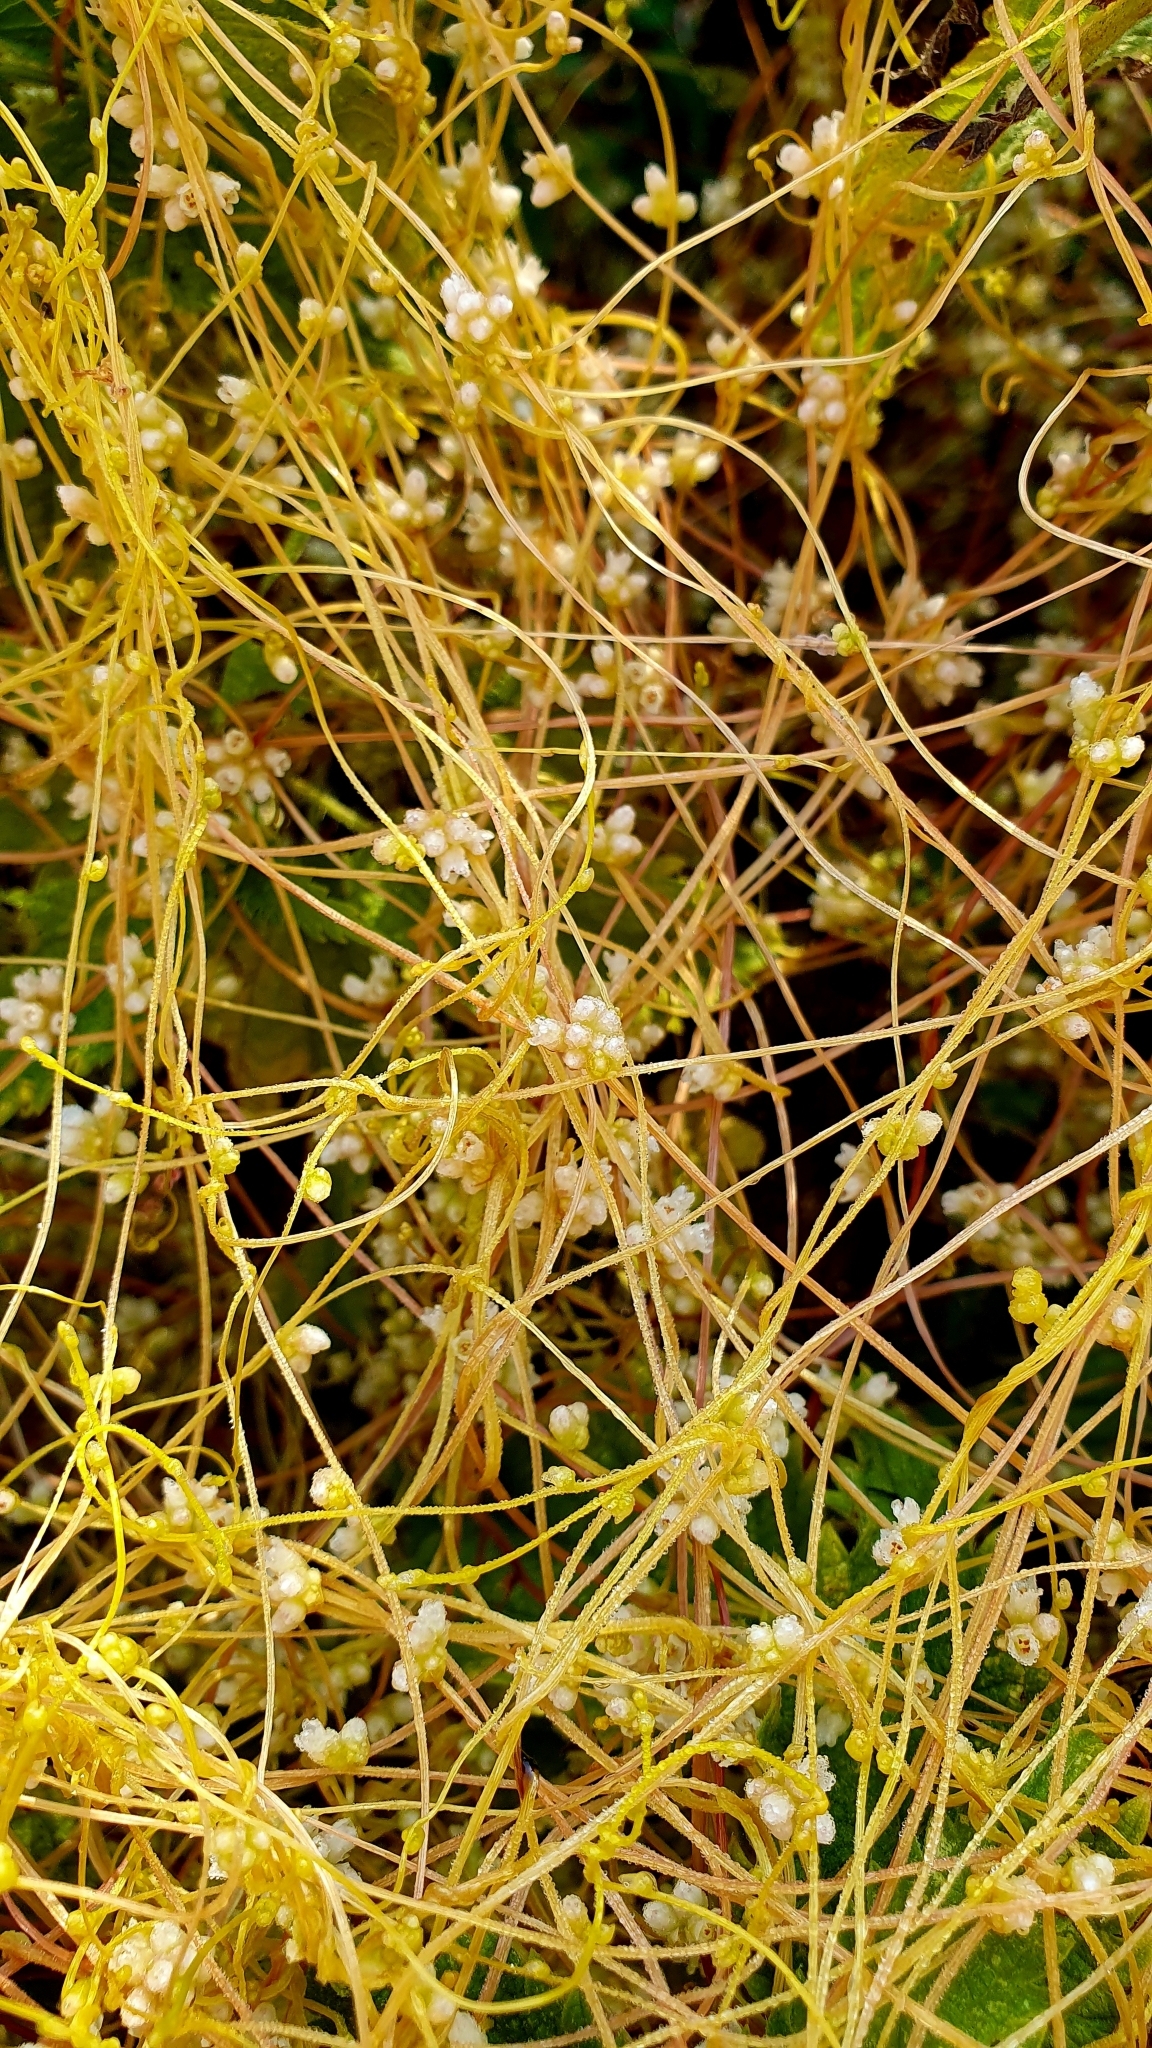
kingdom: Plantae
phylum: Tracheophyta
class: Magnoliopsida
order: Solanales
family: Convolvulaceae
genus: Cuscuta
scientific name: Cuscuta campestris
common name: Yellow dodder
